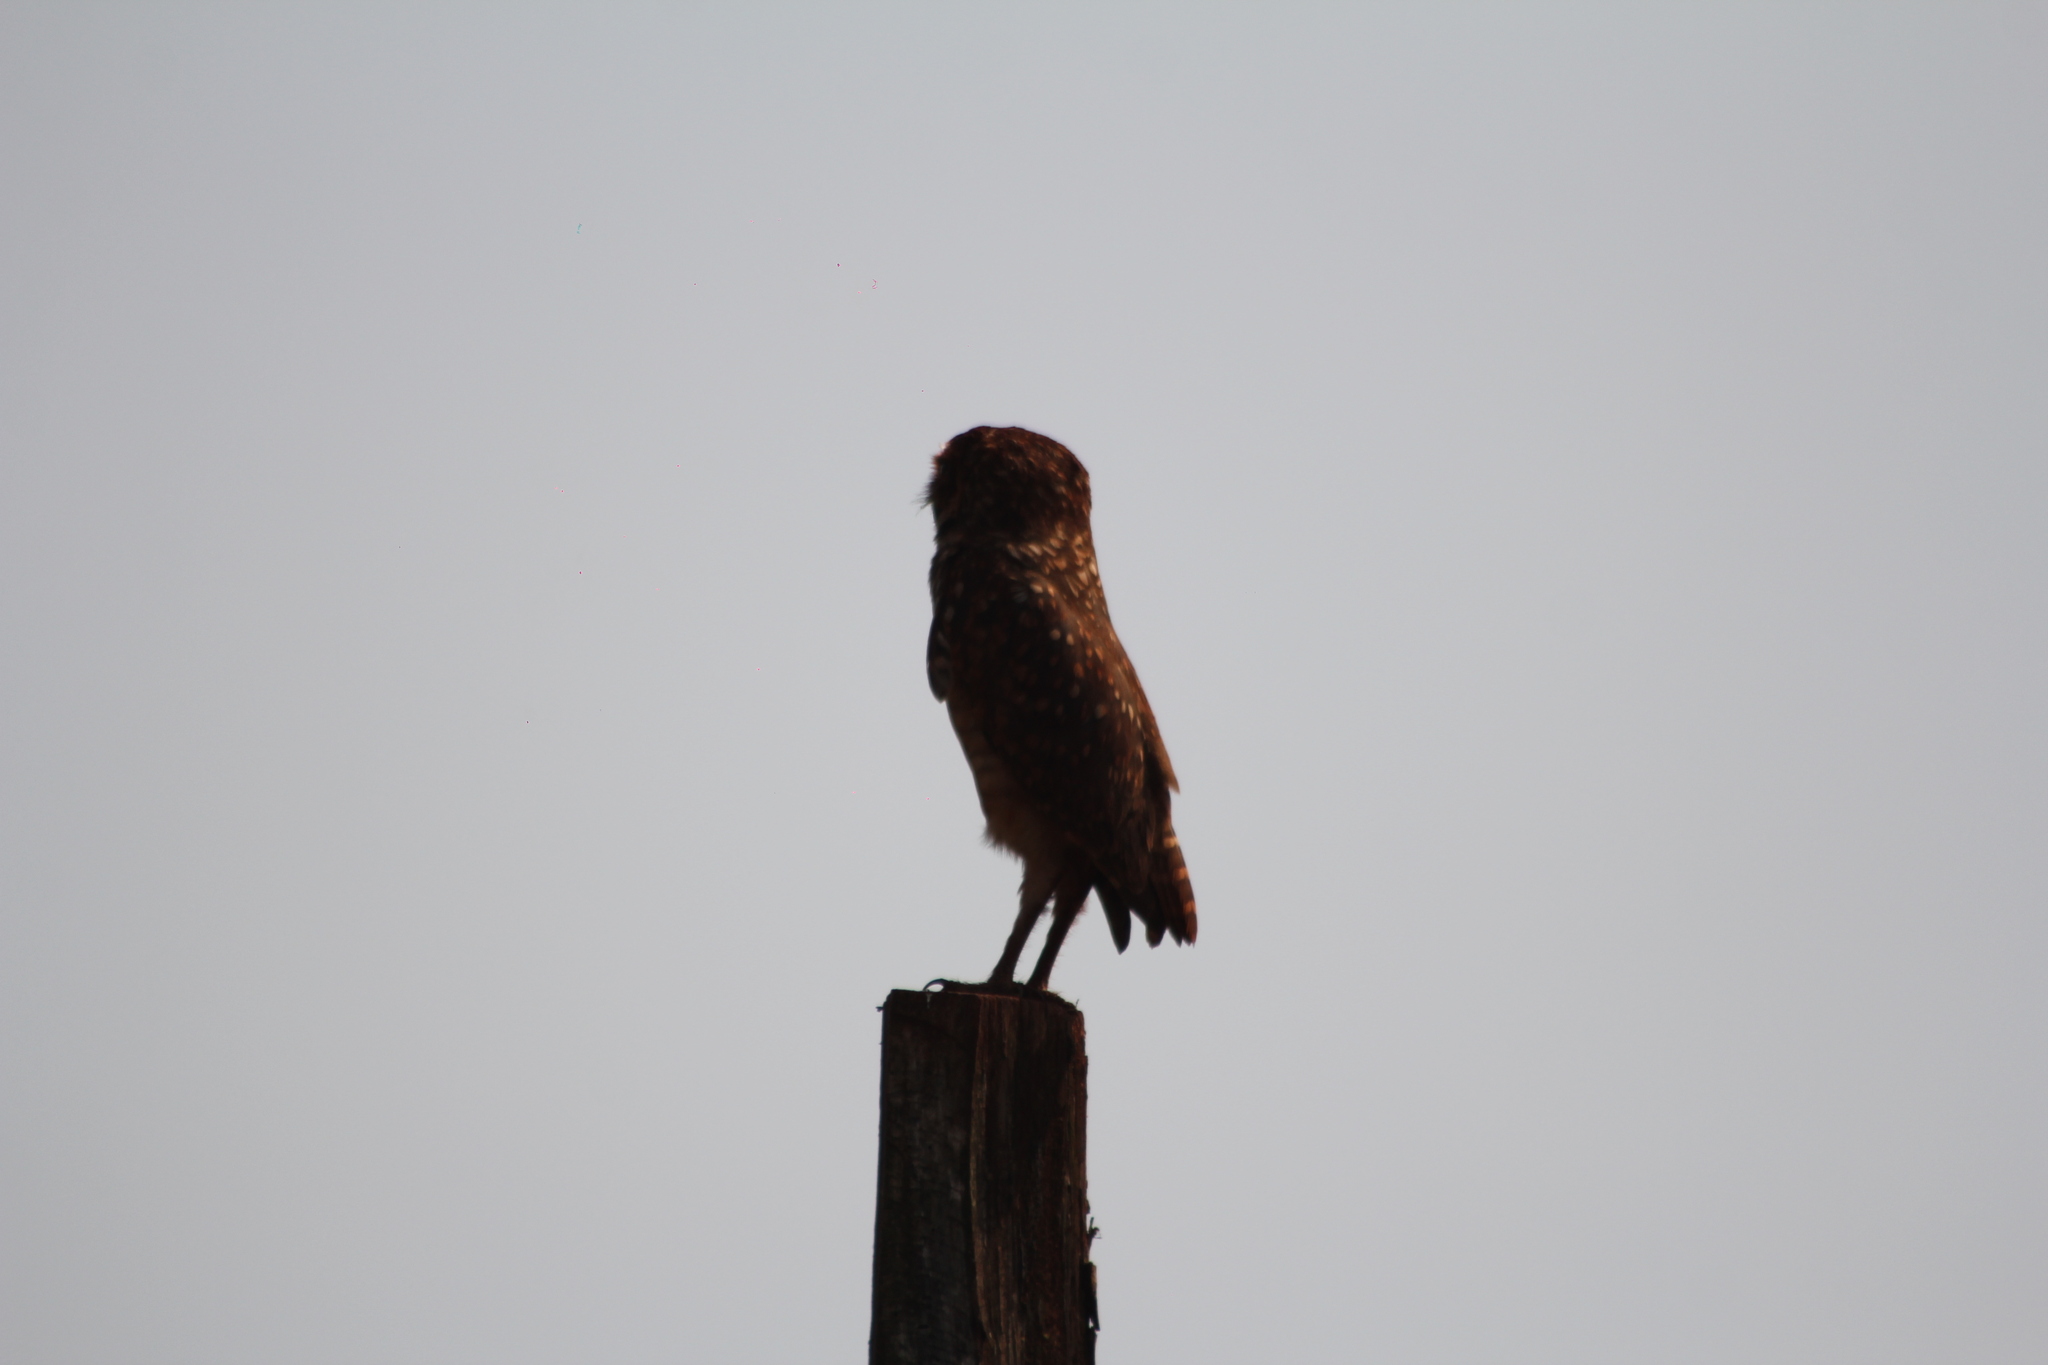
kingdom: Animalia
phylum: Chordata
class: Aves
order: Strigiformes
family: Strigidae
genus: Athene
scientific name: Athene cunicularia
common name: Burrowing owl
